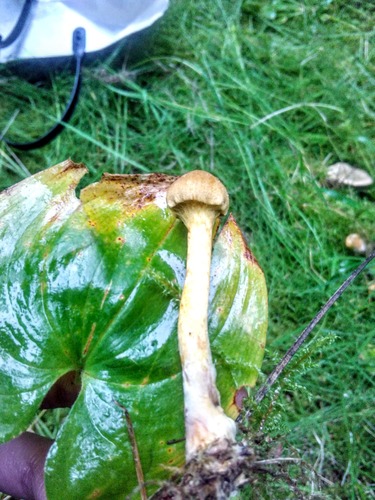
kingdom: Fungi
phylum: Basidiomycota
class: Agaricomycetes
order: Agaricales
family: Cortinariaceae
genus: Cortinarius
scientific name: Cortinarius cinnamomeus
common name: Cinnamon webcap
